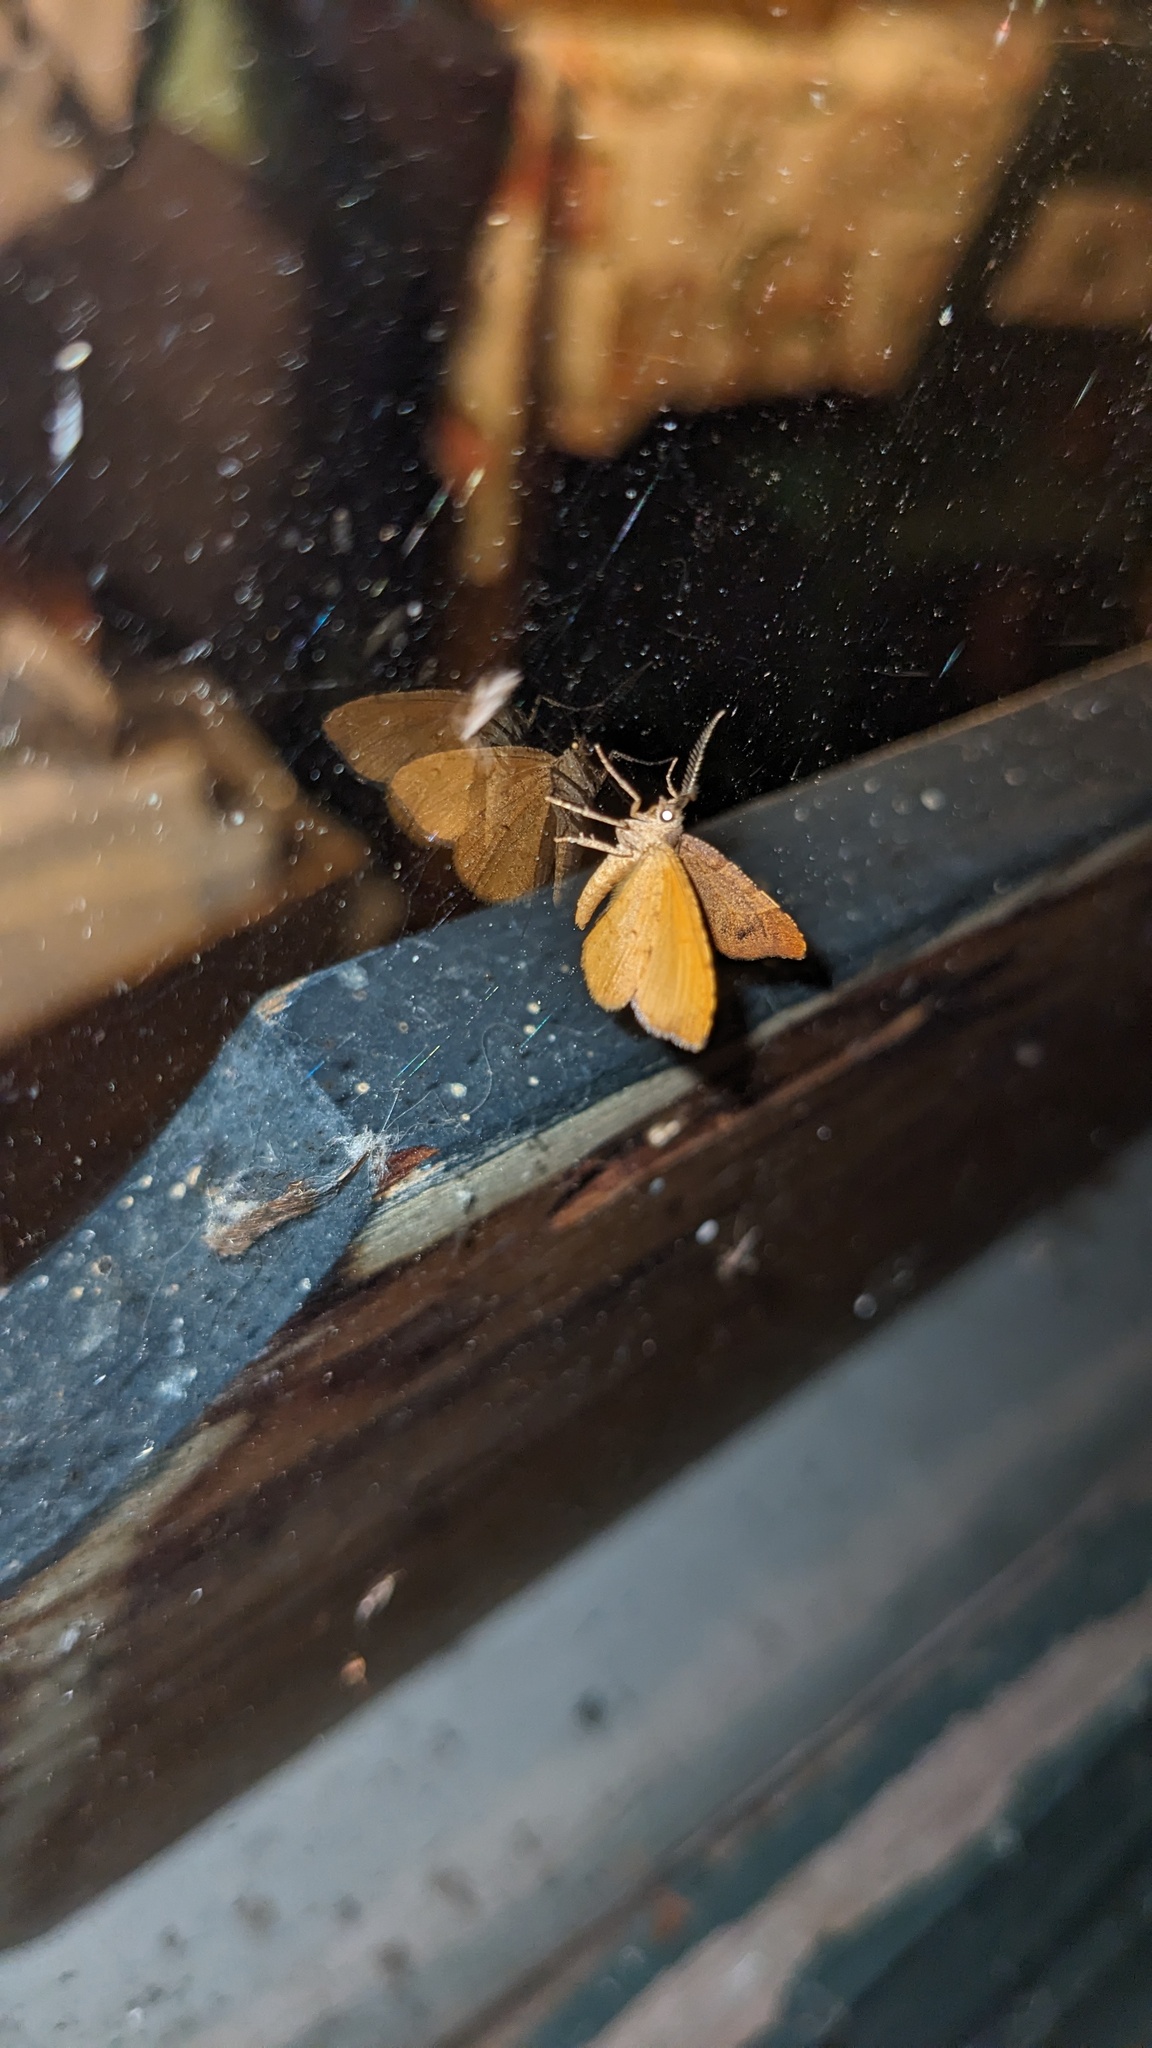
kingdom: Animalia
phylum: Arthropoda
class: Insecta
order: Lepidoptera
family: Geometridae
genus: Mellilla
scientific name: Mellilla xanthometata
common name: Orange wing moth
